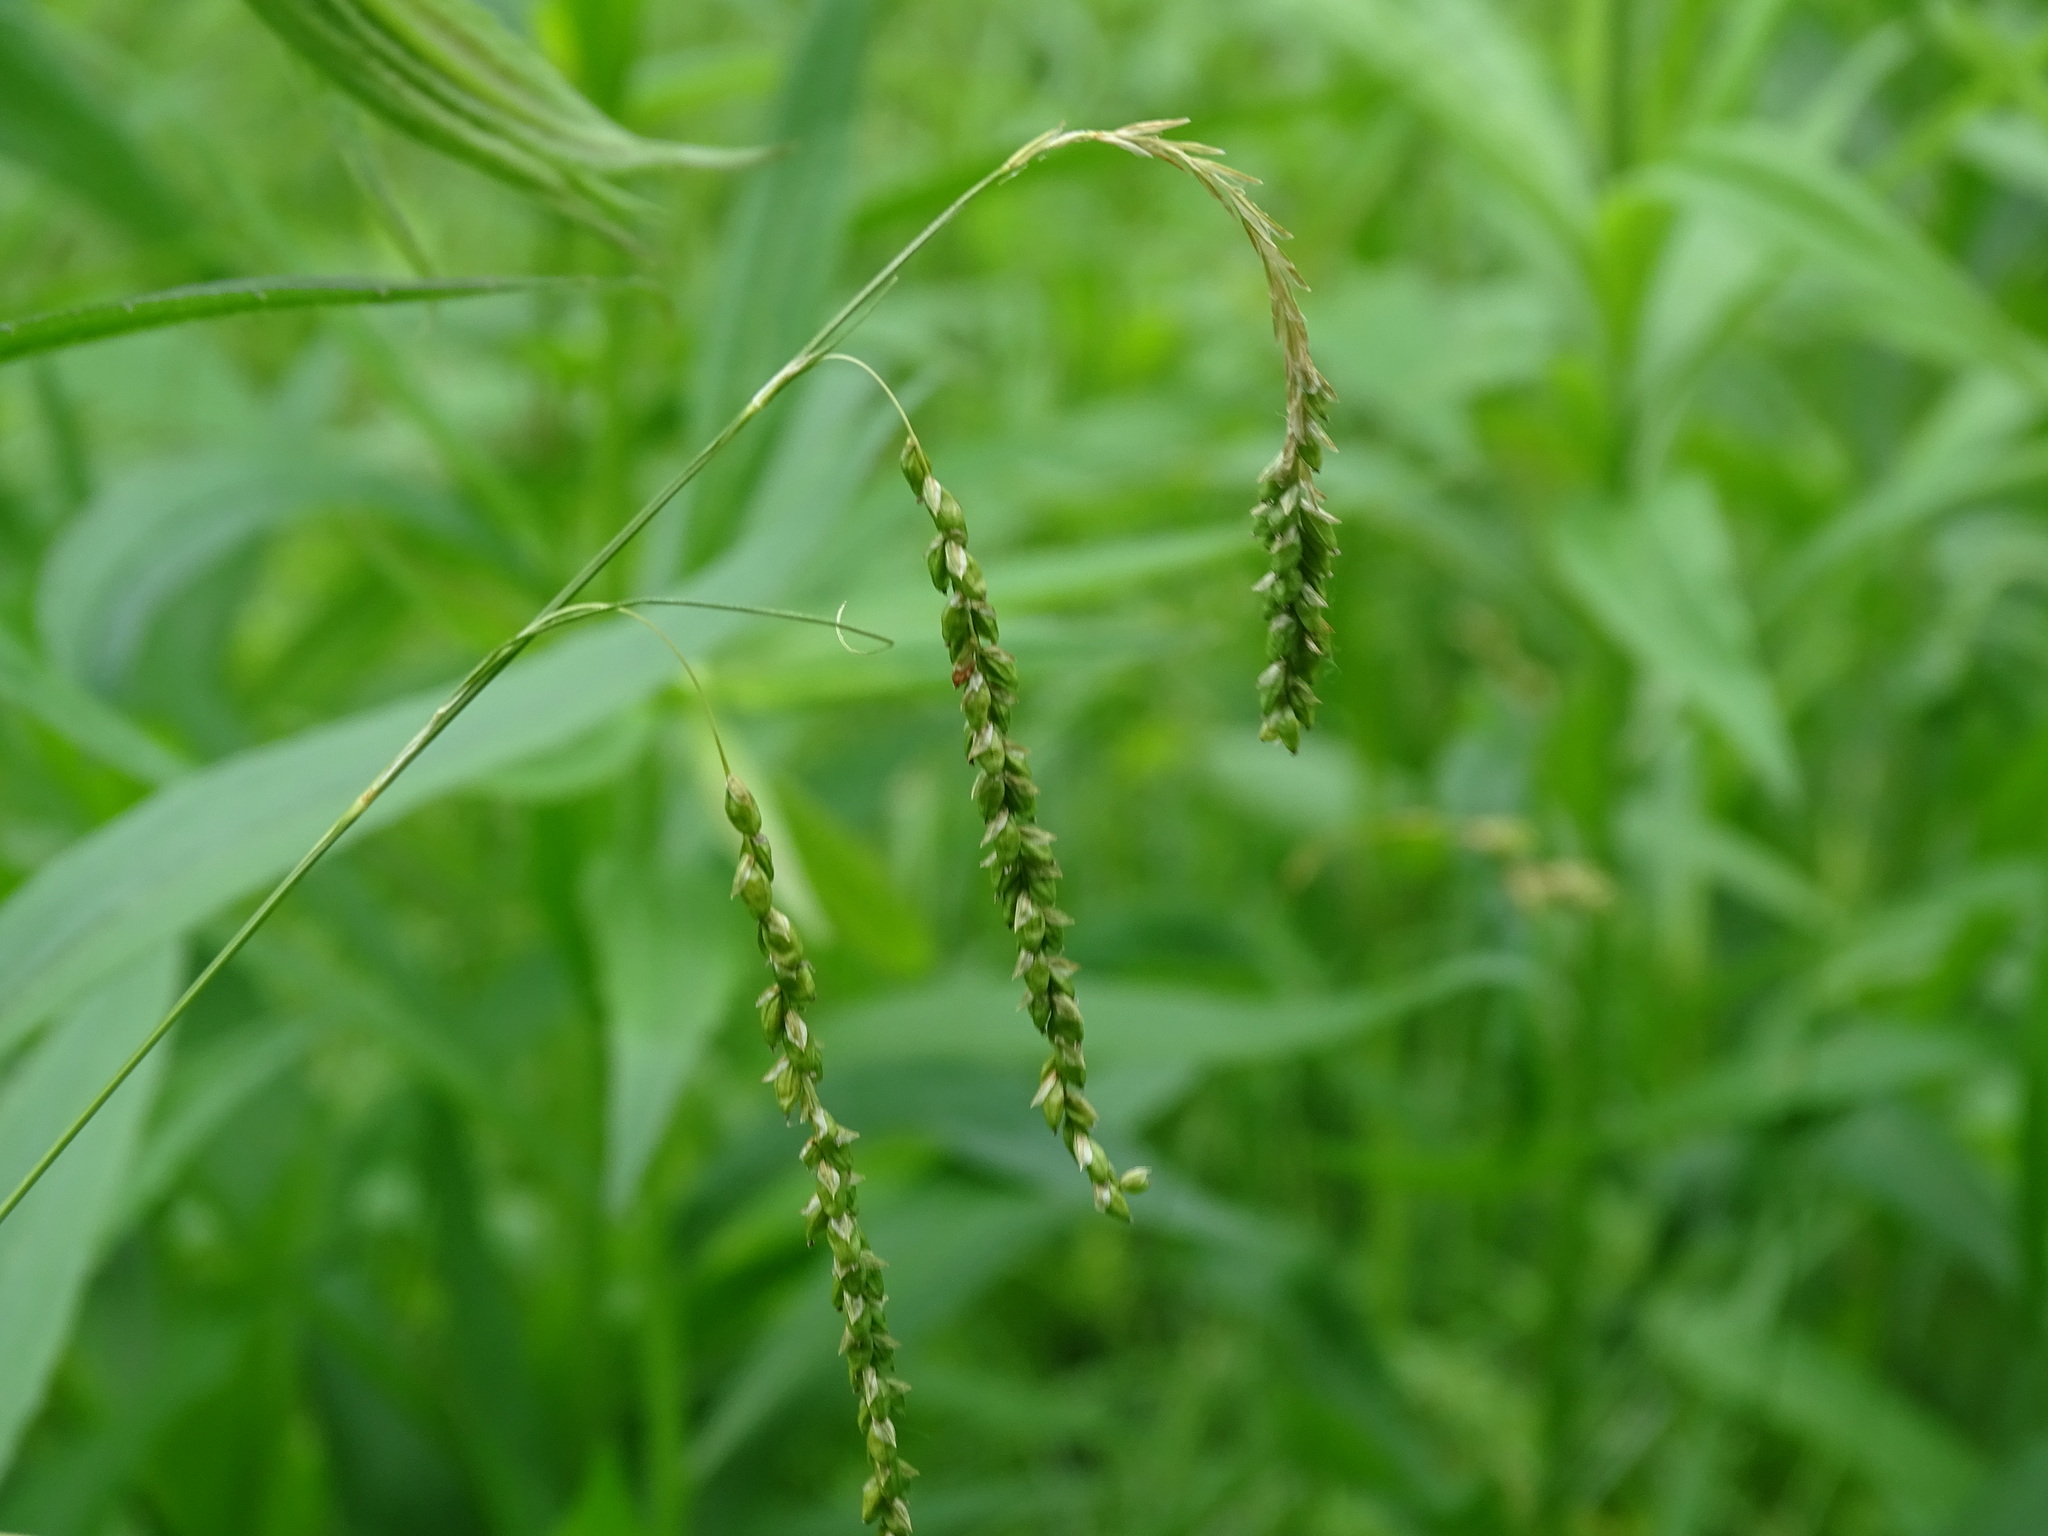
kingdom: Plantae
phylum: Tracheophyta
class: Liliopsida
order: Poales
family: Cyperaceae
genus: Carex
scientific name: Carex gracillima
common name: Graceful sedge
